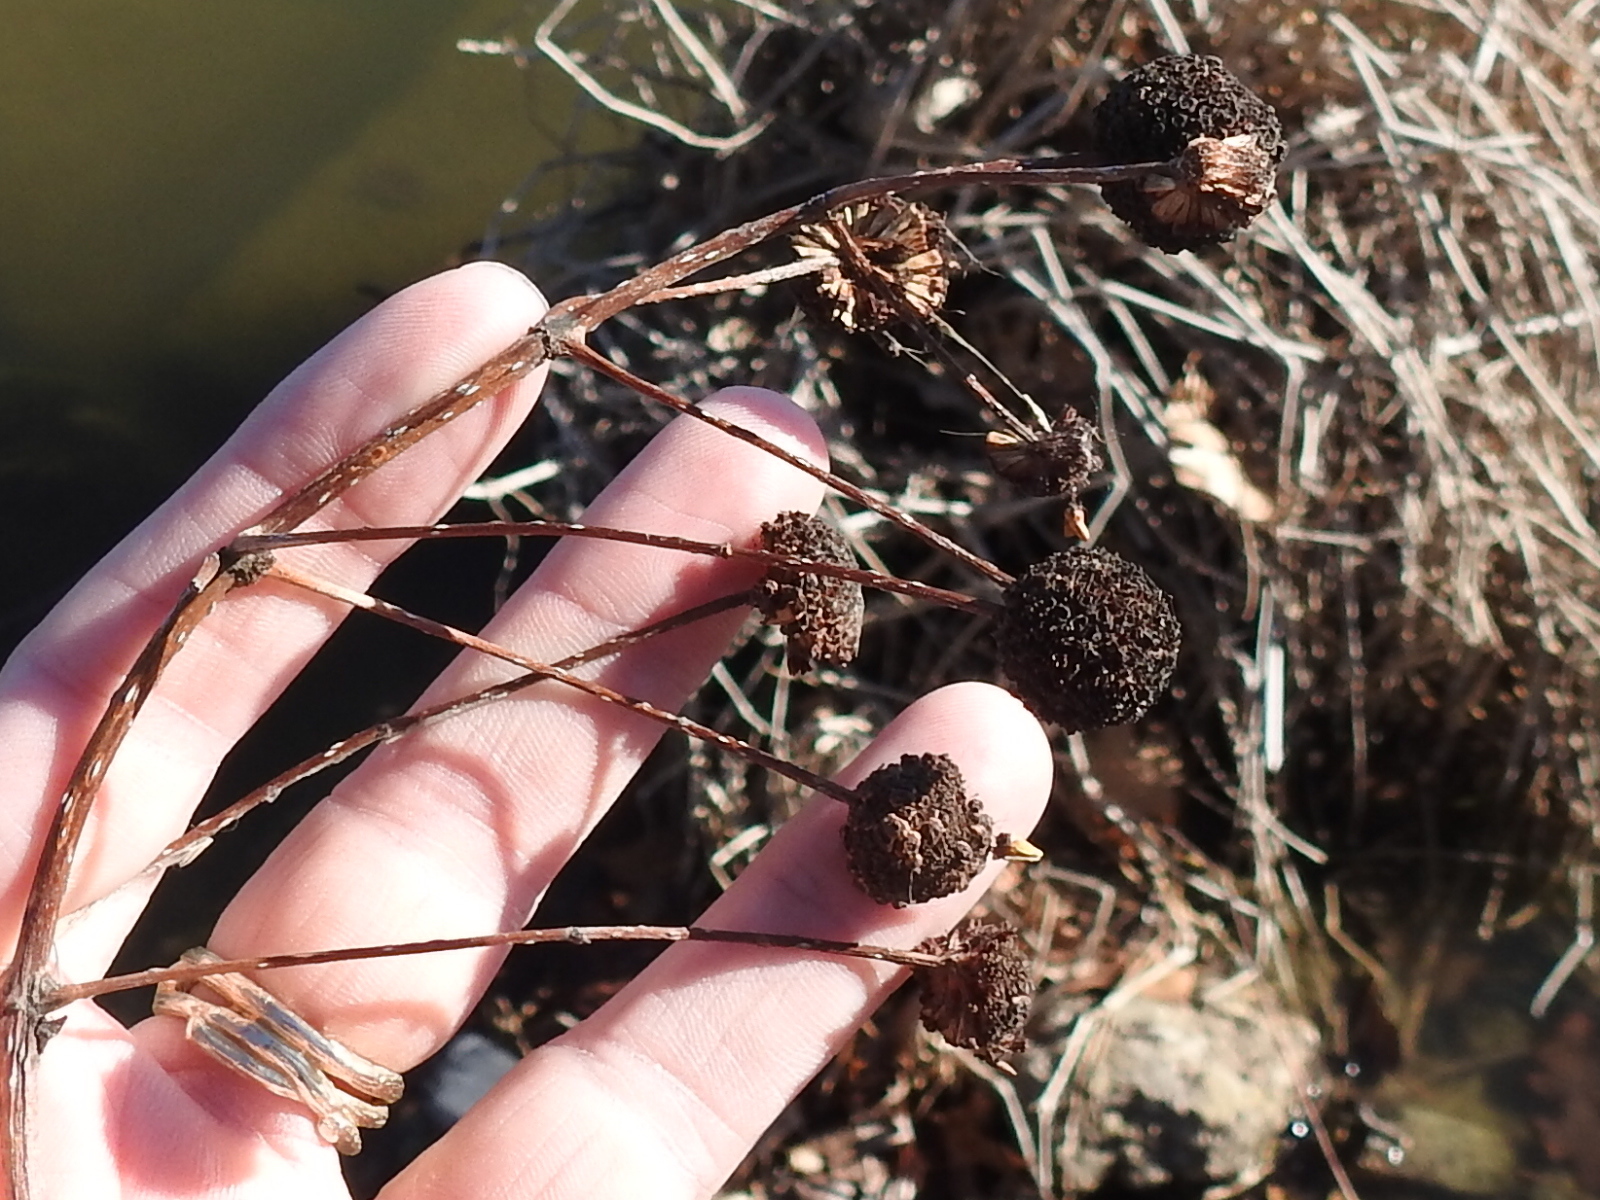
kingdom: Plantae
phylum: Tracheophyta
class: Magnoliopsida
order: Gentianales
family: Rubiaceae
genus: Cephalanthus
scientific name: Cephalanthus occidentalis
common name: Button-willow
